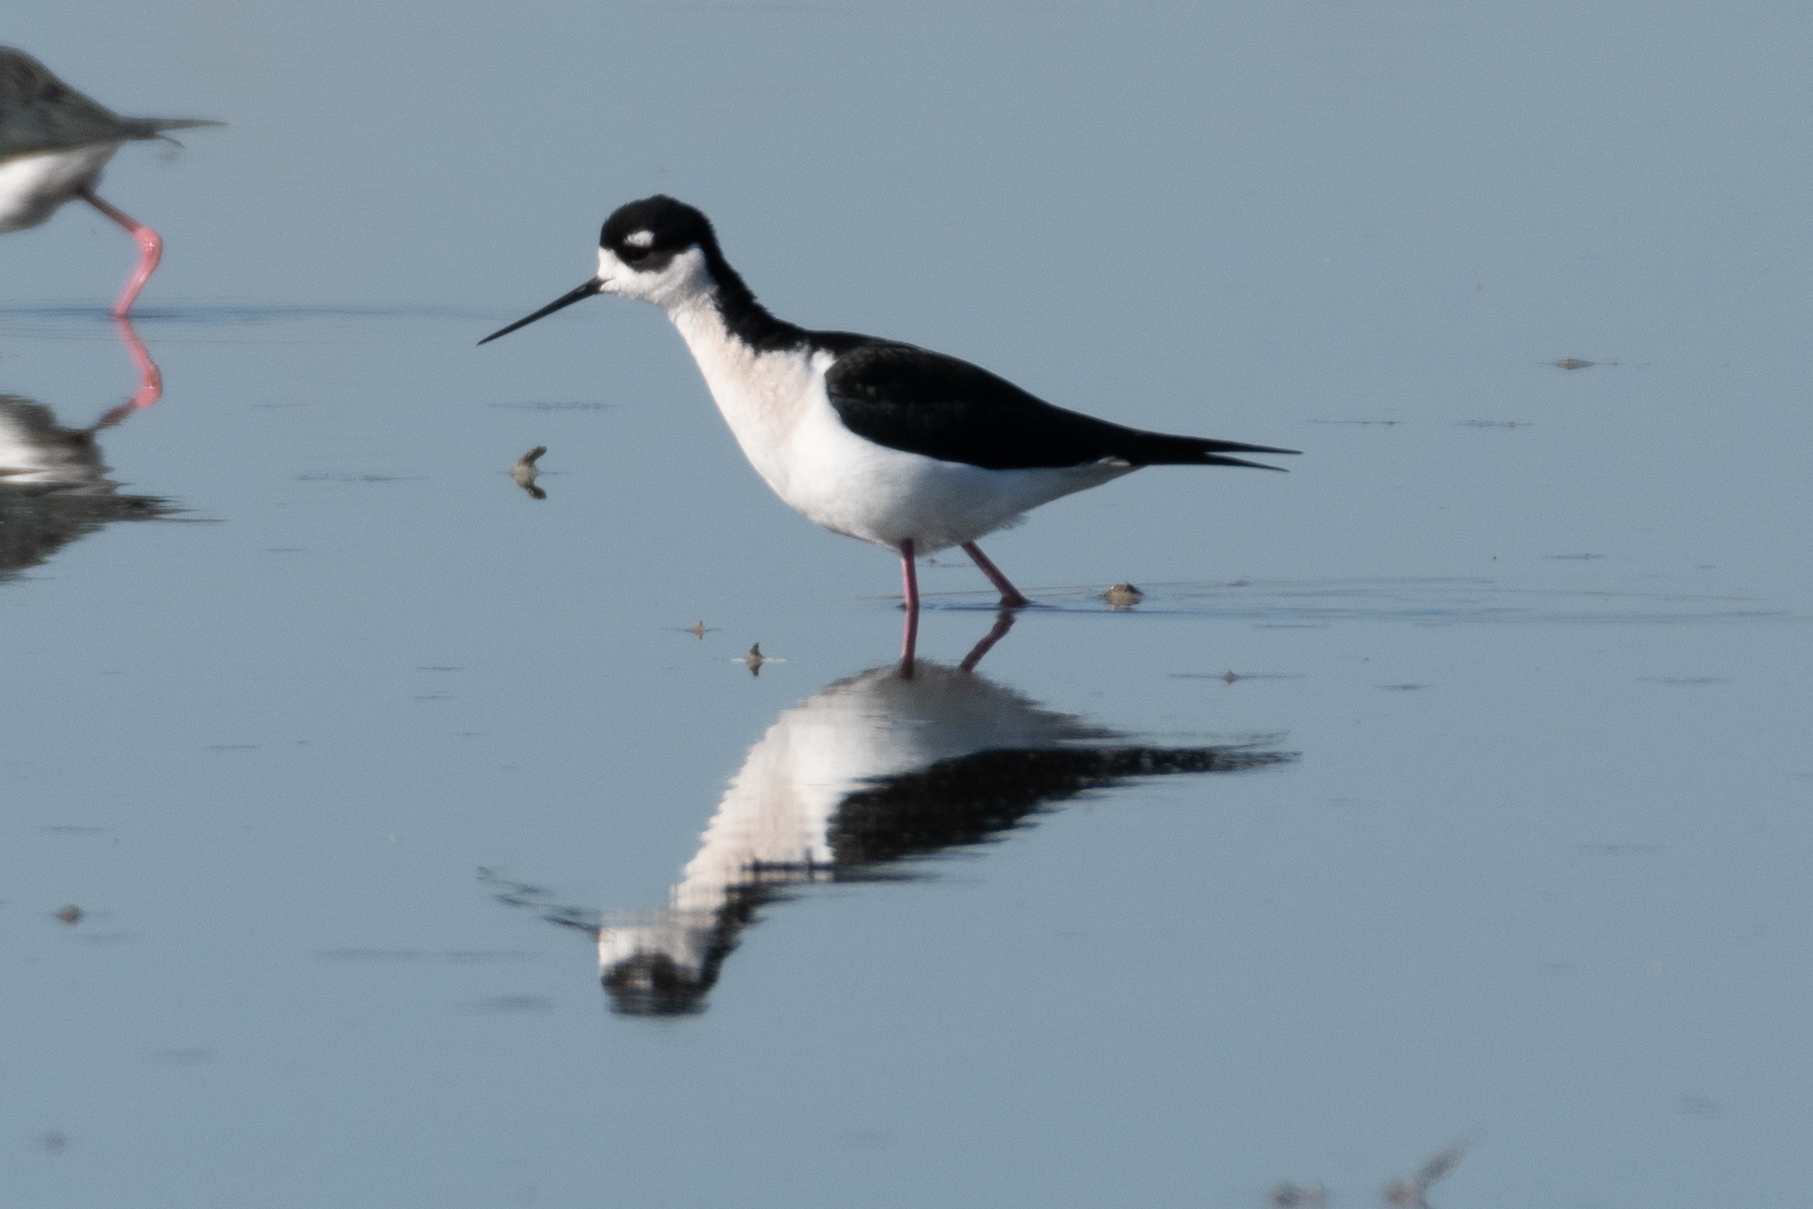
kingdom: Animalia
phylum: Chordata
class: Aves
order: Charadriiformes
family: Recurvirostridae
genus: Himantopus
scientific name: Himantopus mexicanus
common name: Black-necked stilt
